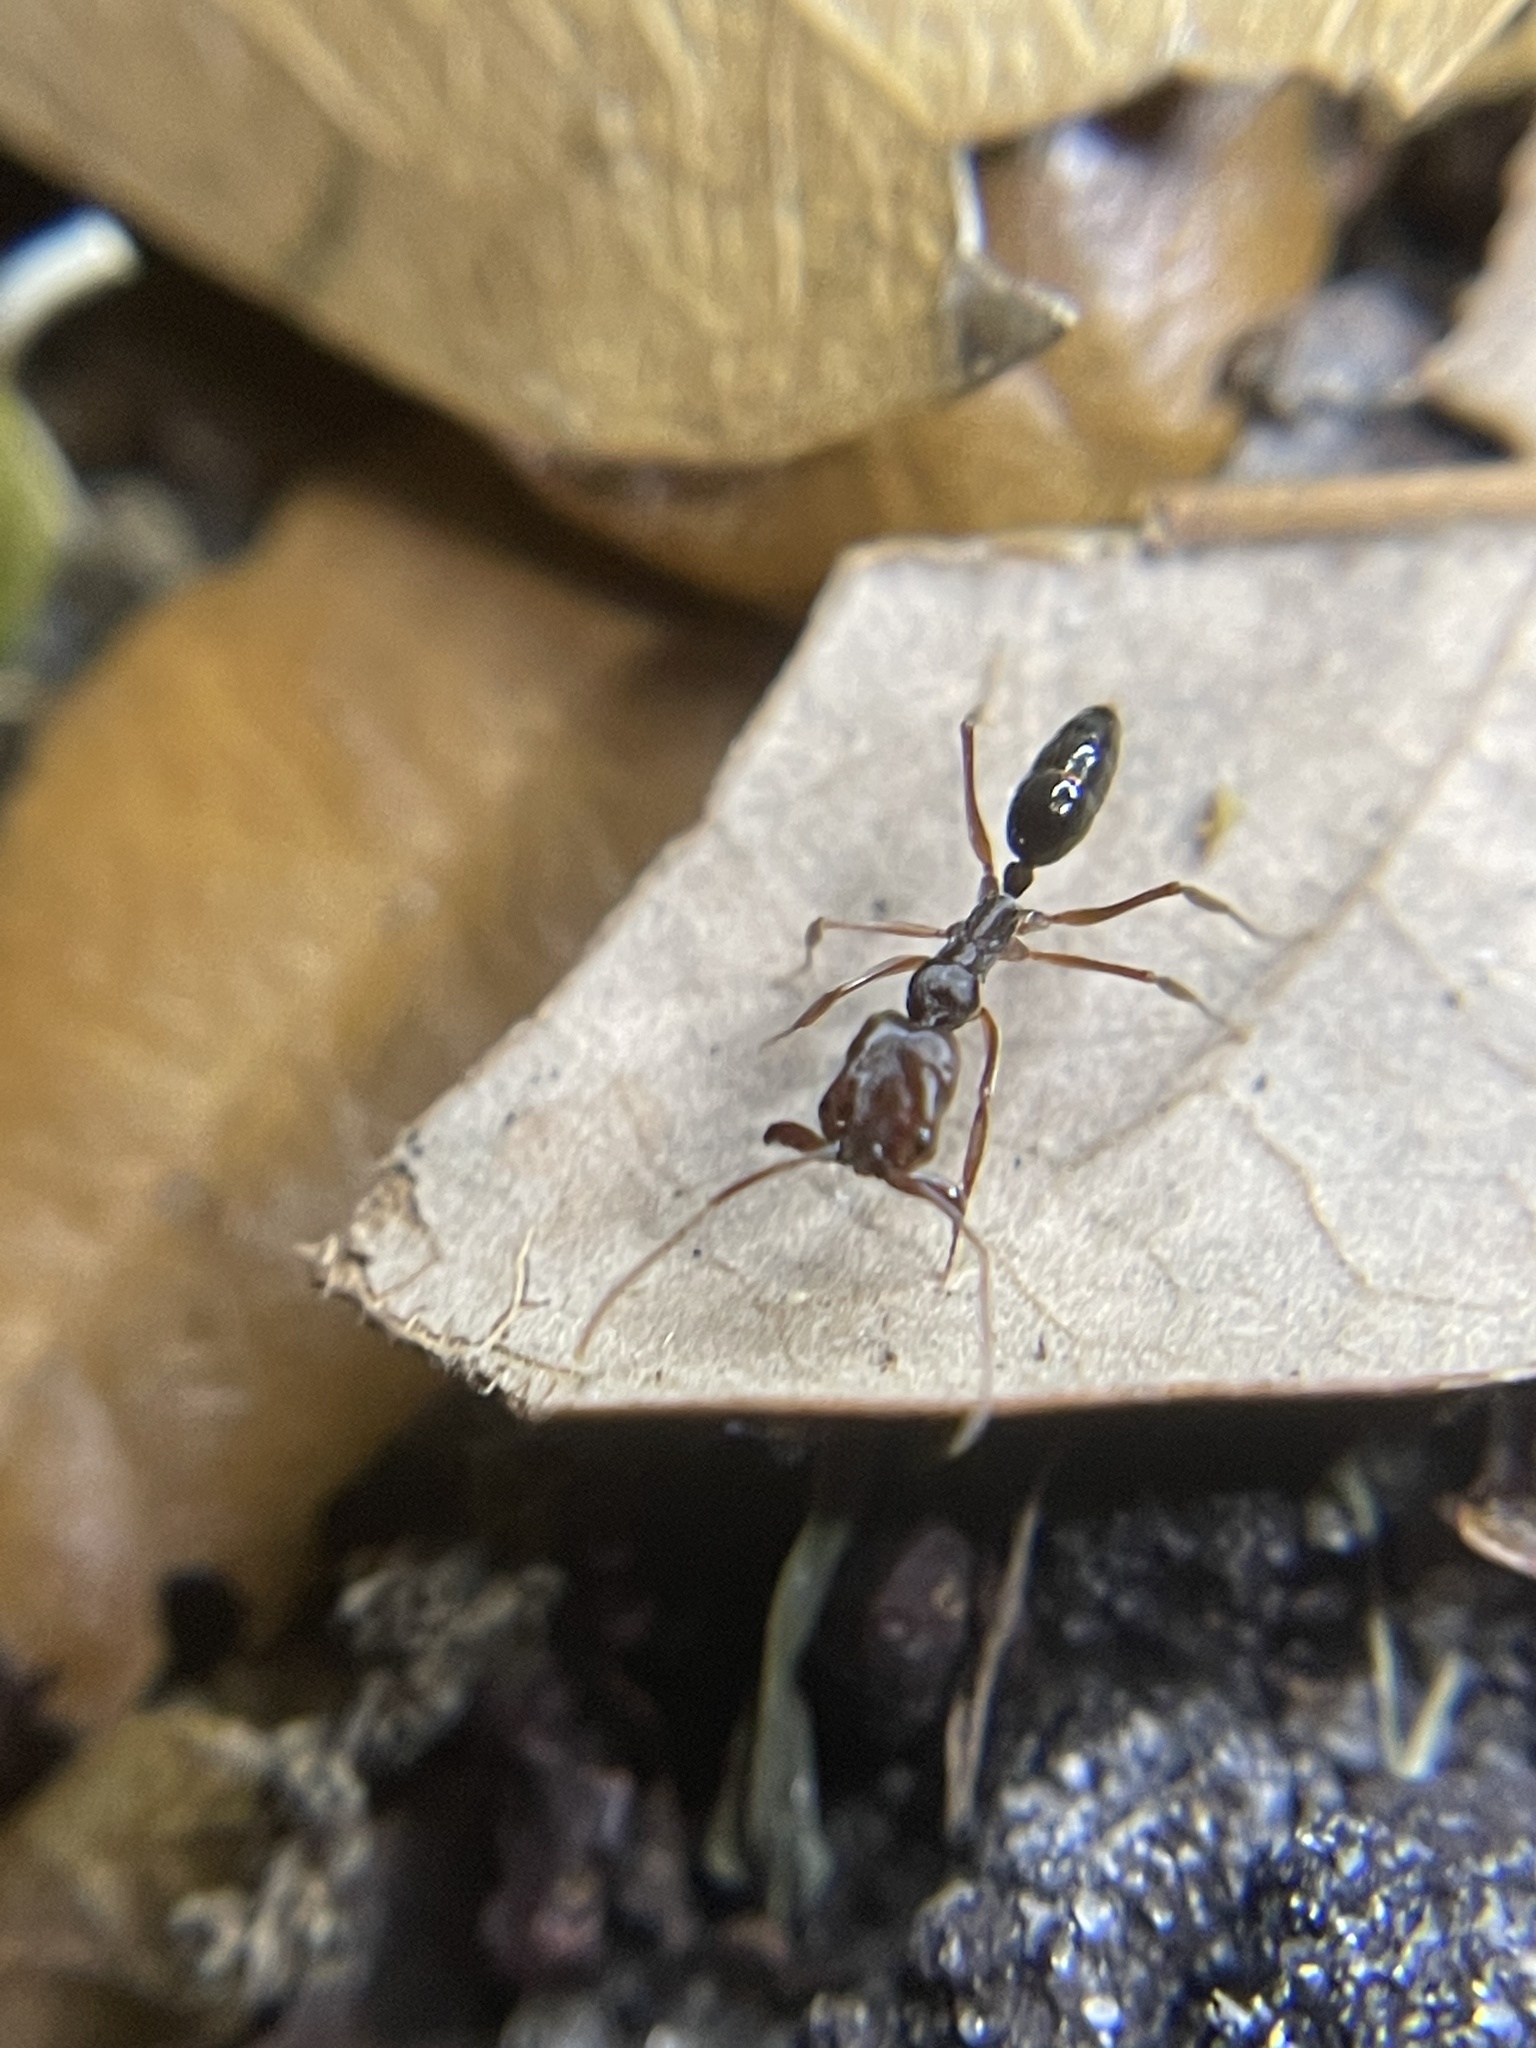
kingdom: Animalia
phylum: Arthropoda
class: Insecta
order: Hymenoptera
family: Formicidae
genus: Odontomachus
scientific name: Odontomachus brunneus
